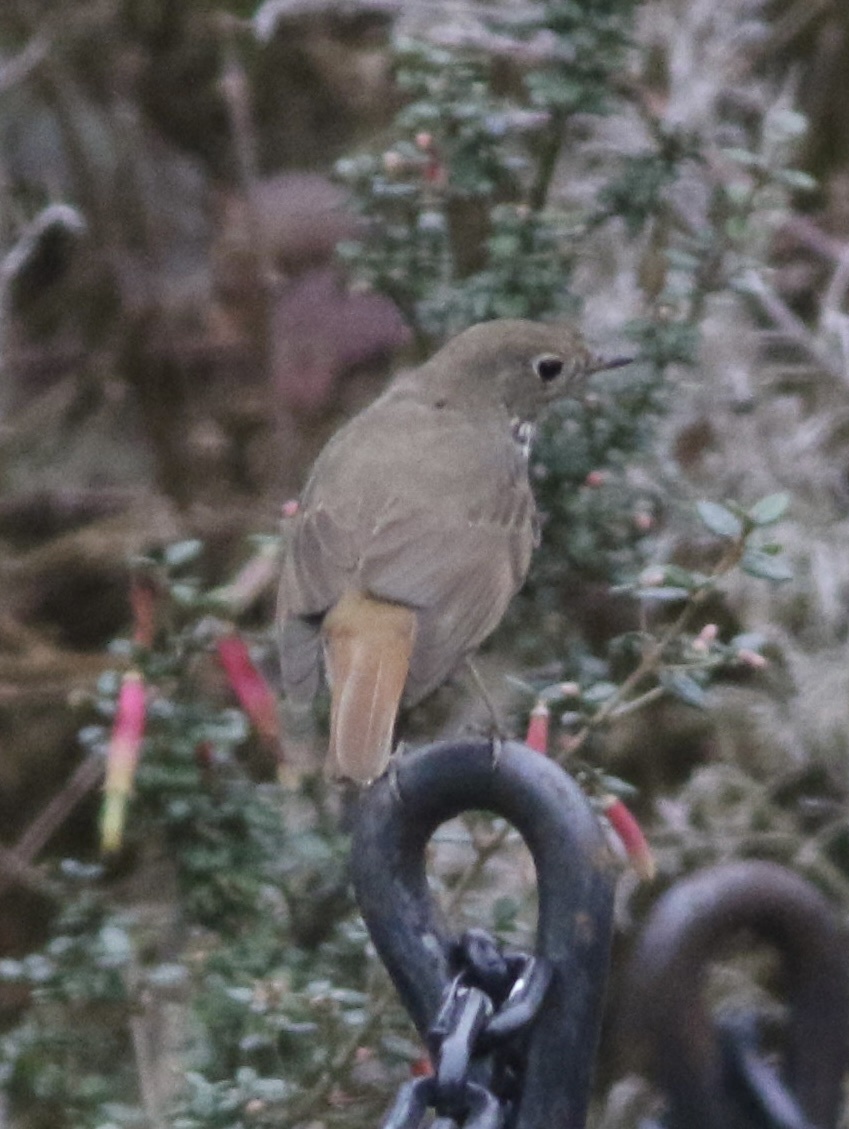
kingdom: Animalia
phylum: Chordata
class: Aves
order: Passeriformes
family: Turdidae
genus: Catharus
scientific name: Catharus guttatus
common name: Hermit thrush
